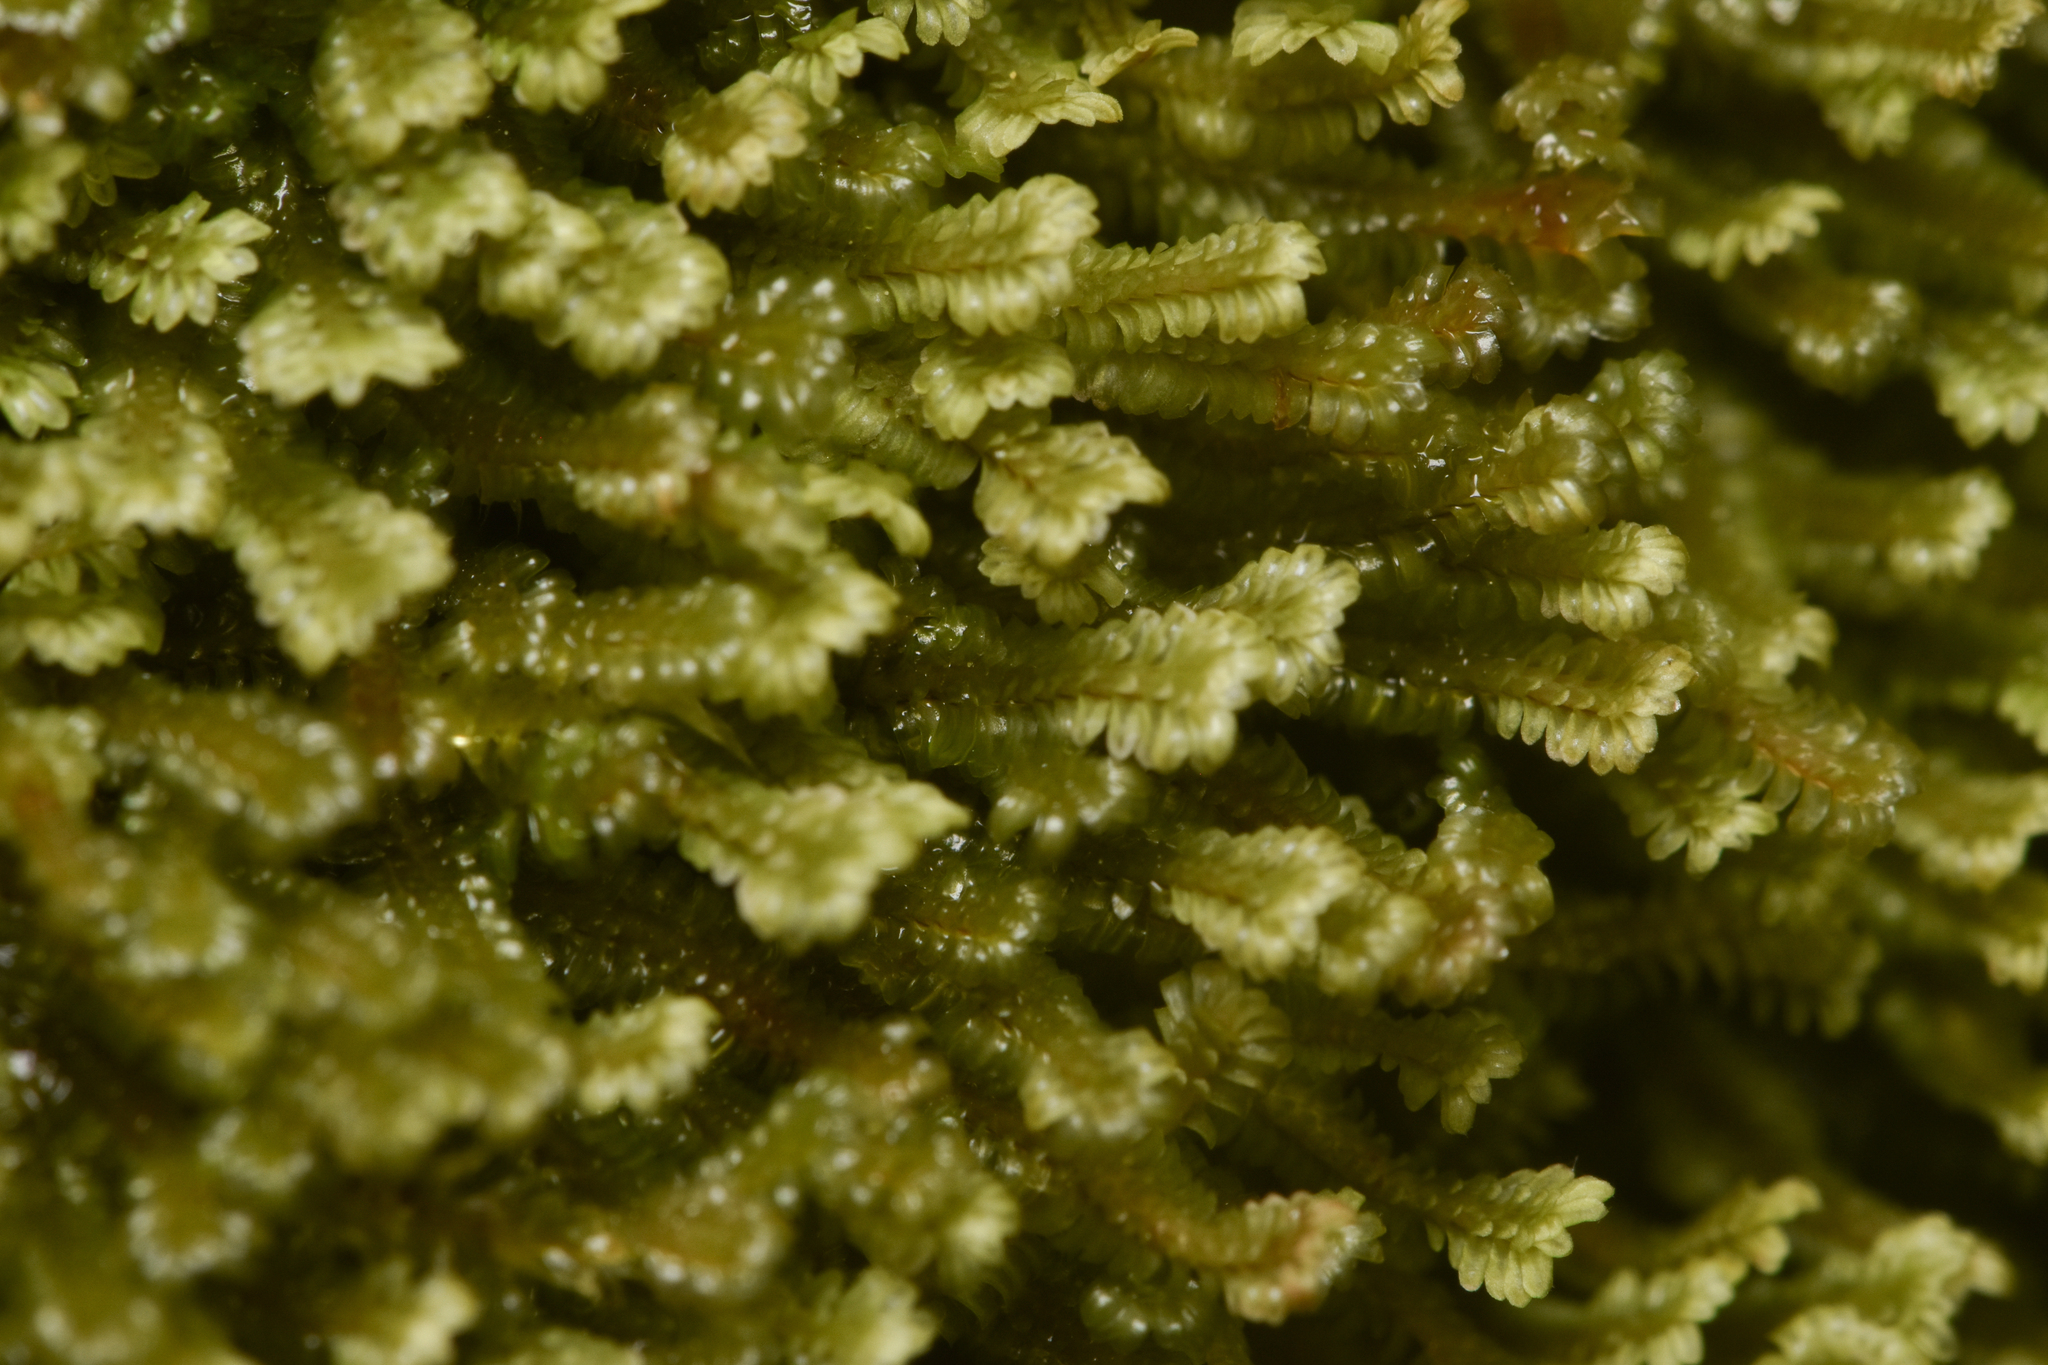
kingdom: Plantae
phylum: Marchantiophyta
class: Jungermanniopsida
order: Jungermanniales
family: Scapaniaceae
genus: Diplophyllum
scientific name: Diplophyllum albicans
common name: White earwort
